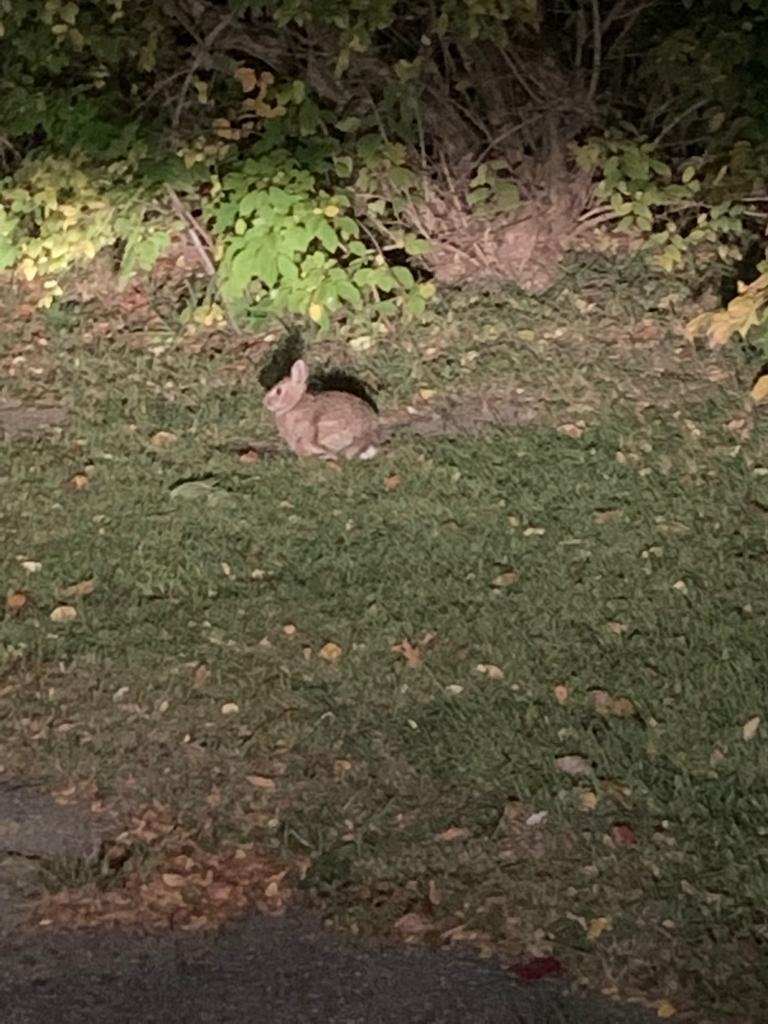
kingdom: Animalia
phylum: Chordata
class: Mammalia
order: Lagomorpha
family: Leporidae
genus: Sylvilagus
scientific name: Sylvilagus floridanus
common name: Eastern cottontail
